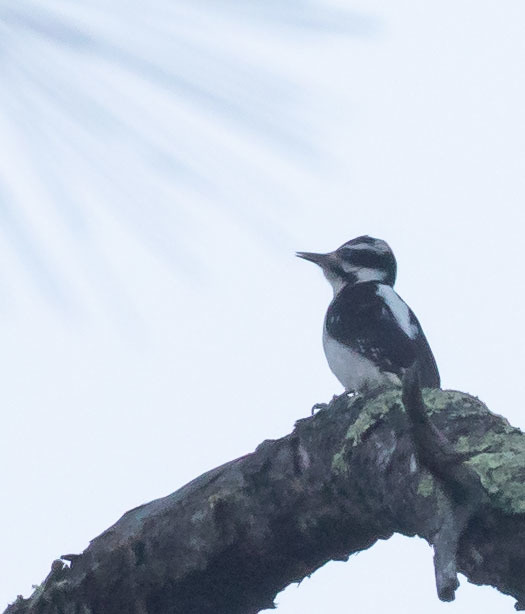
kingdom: Animalia
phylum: Chordata
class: Aves
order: Piciformes
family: Picidae
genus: Leuconotopicus
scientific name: Leuconotopicus villosus
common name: Hairy woodpecker
